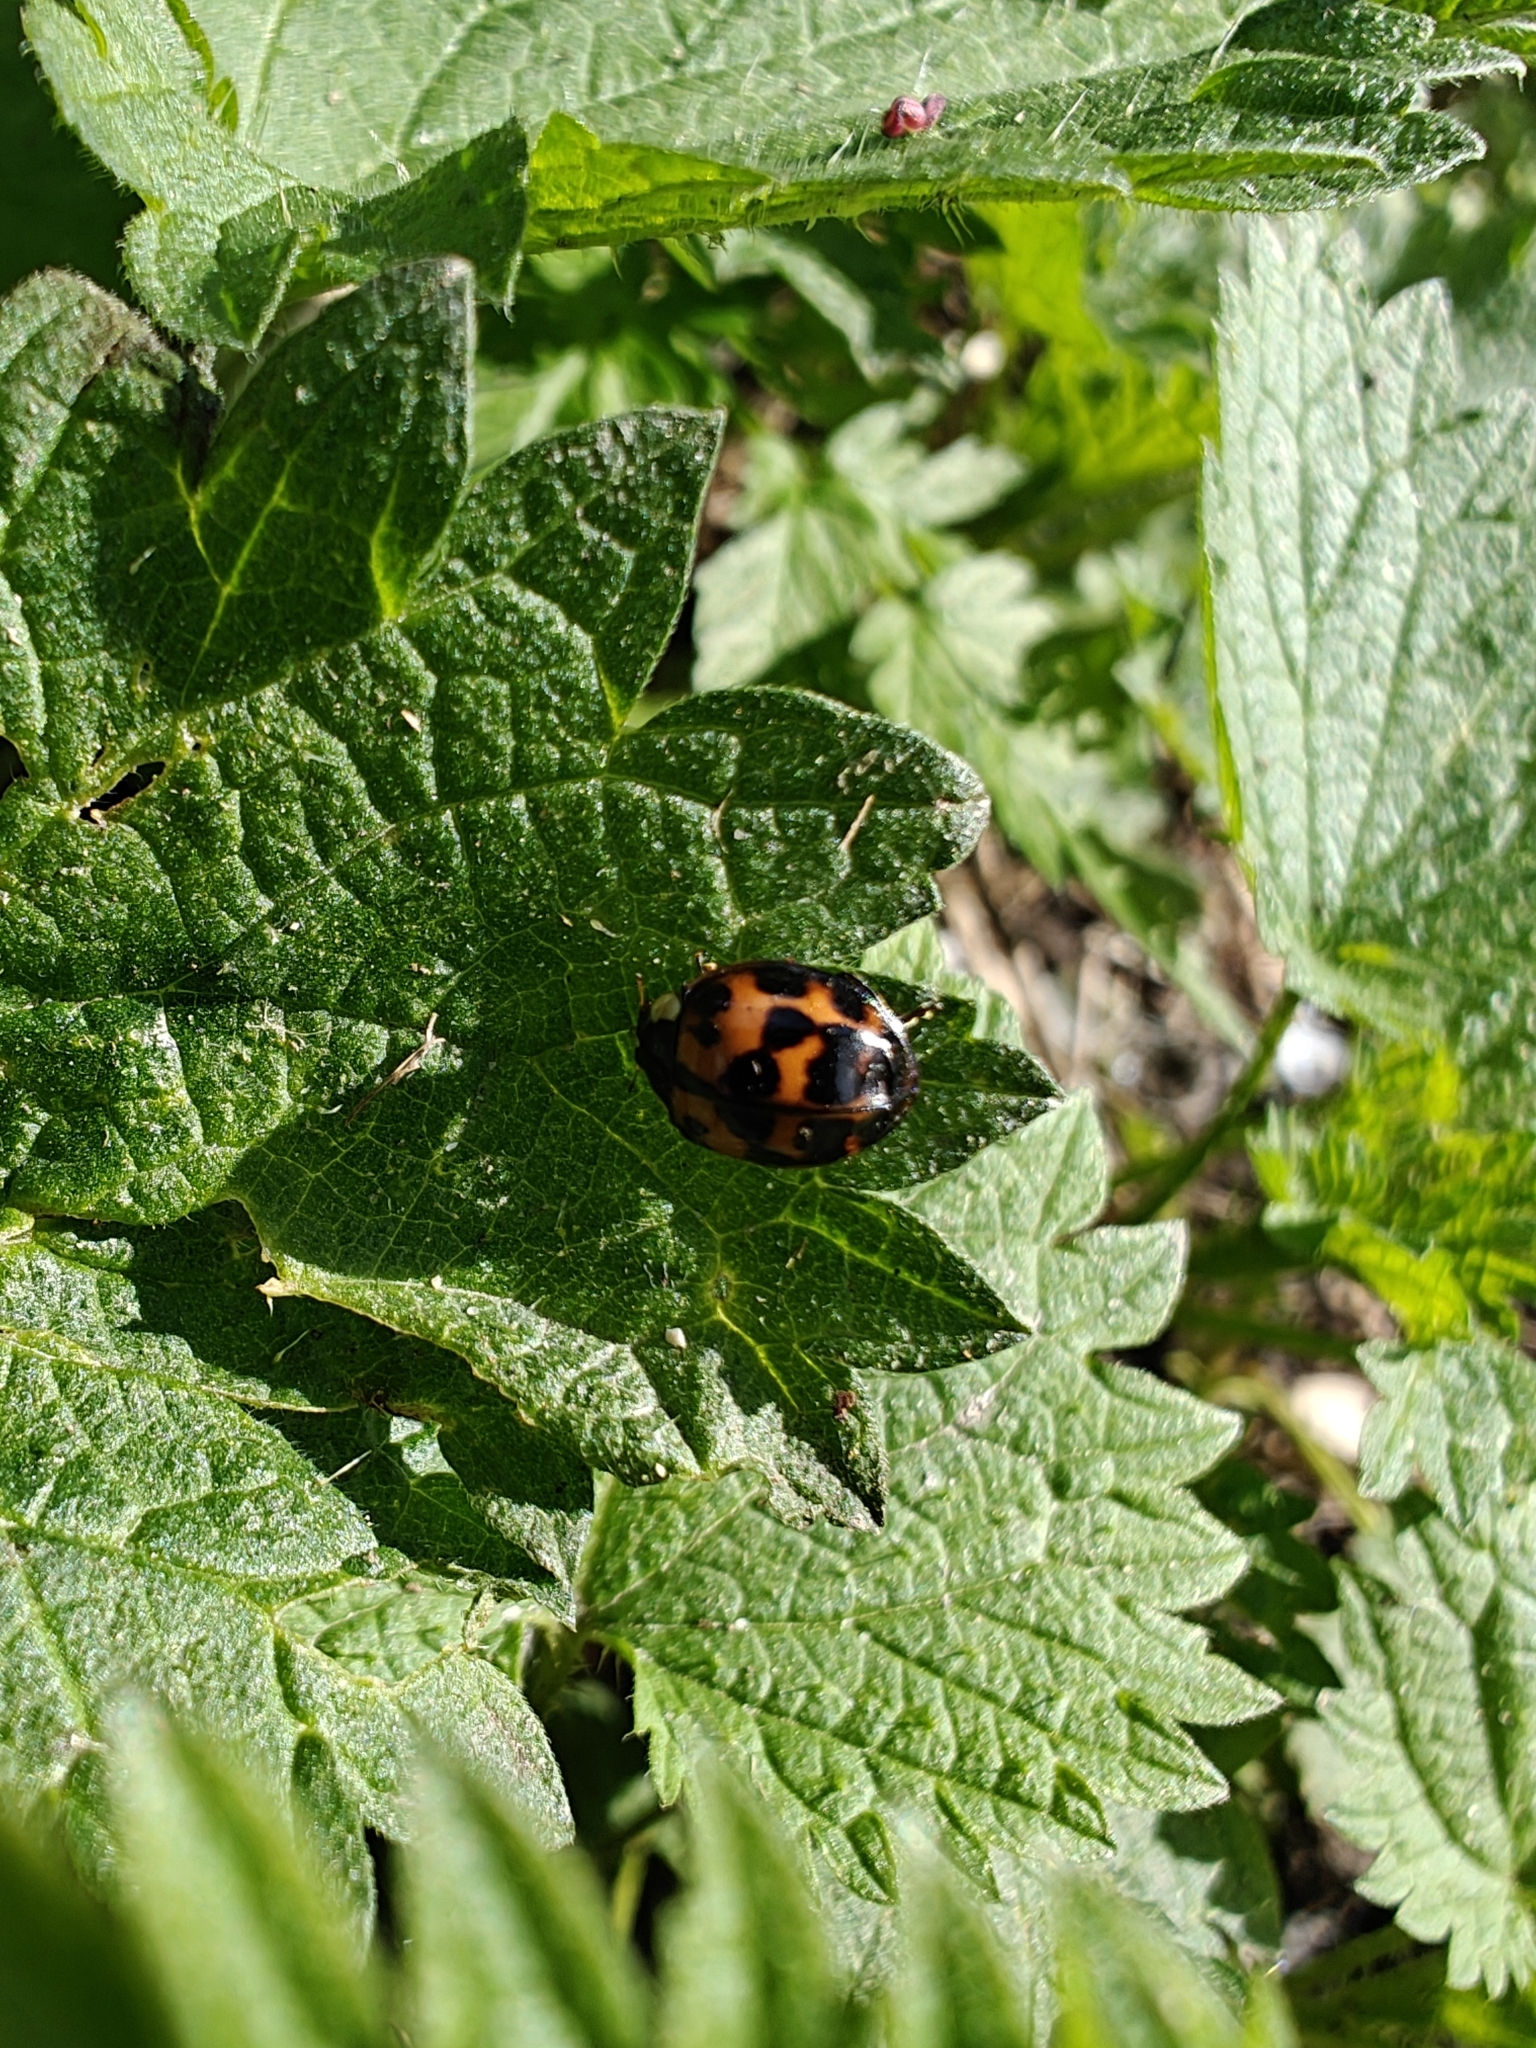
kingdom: Animalia
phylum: Arthropoda
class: Insecta
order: Coleoptera
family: Coccinellidae
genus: Harmonia
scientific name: Harmonia axyridis
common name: Harlequin ladybird
